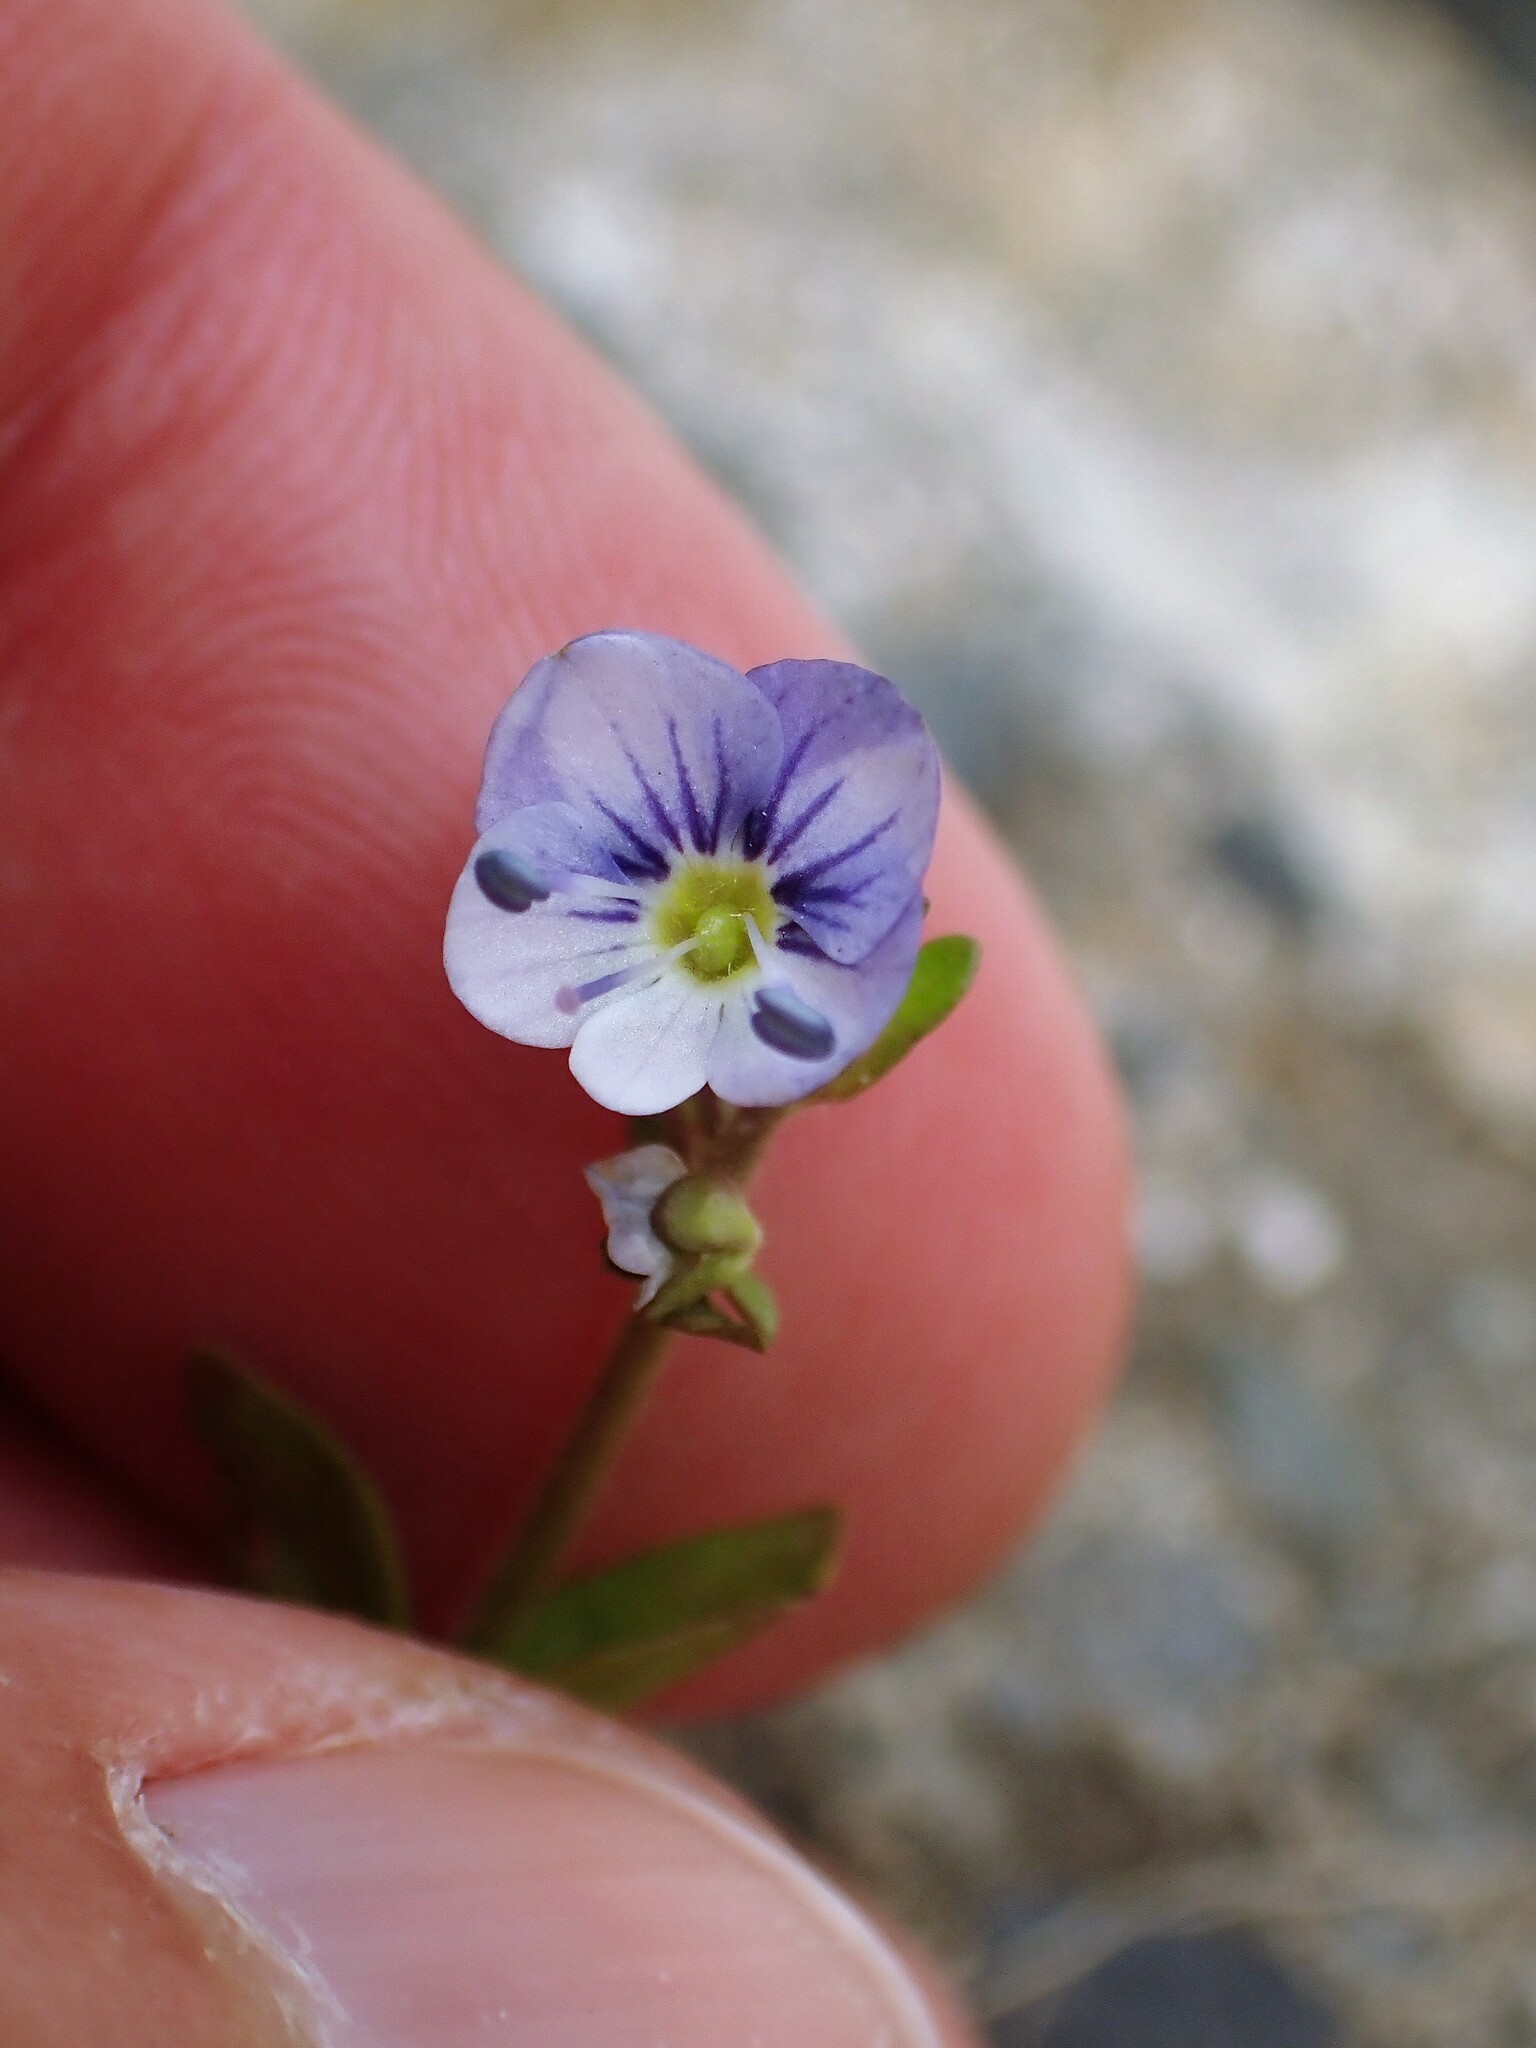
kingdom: Plantae
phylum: Tracheophyta
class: Magnoliopsida
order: Lamiales
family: Plantaginaceae
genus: Veronica
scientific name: Veronica serpyllifolia
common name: Thyme-leaved speedwell
